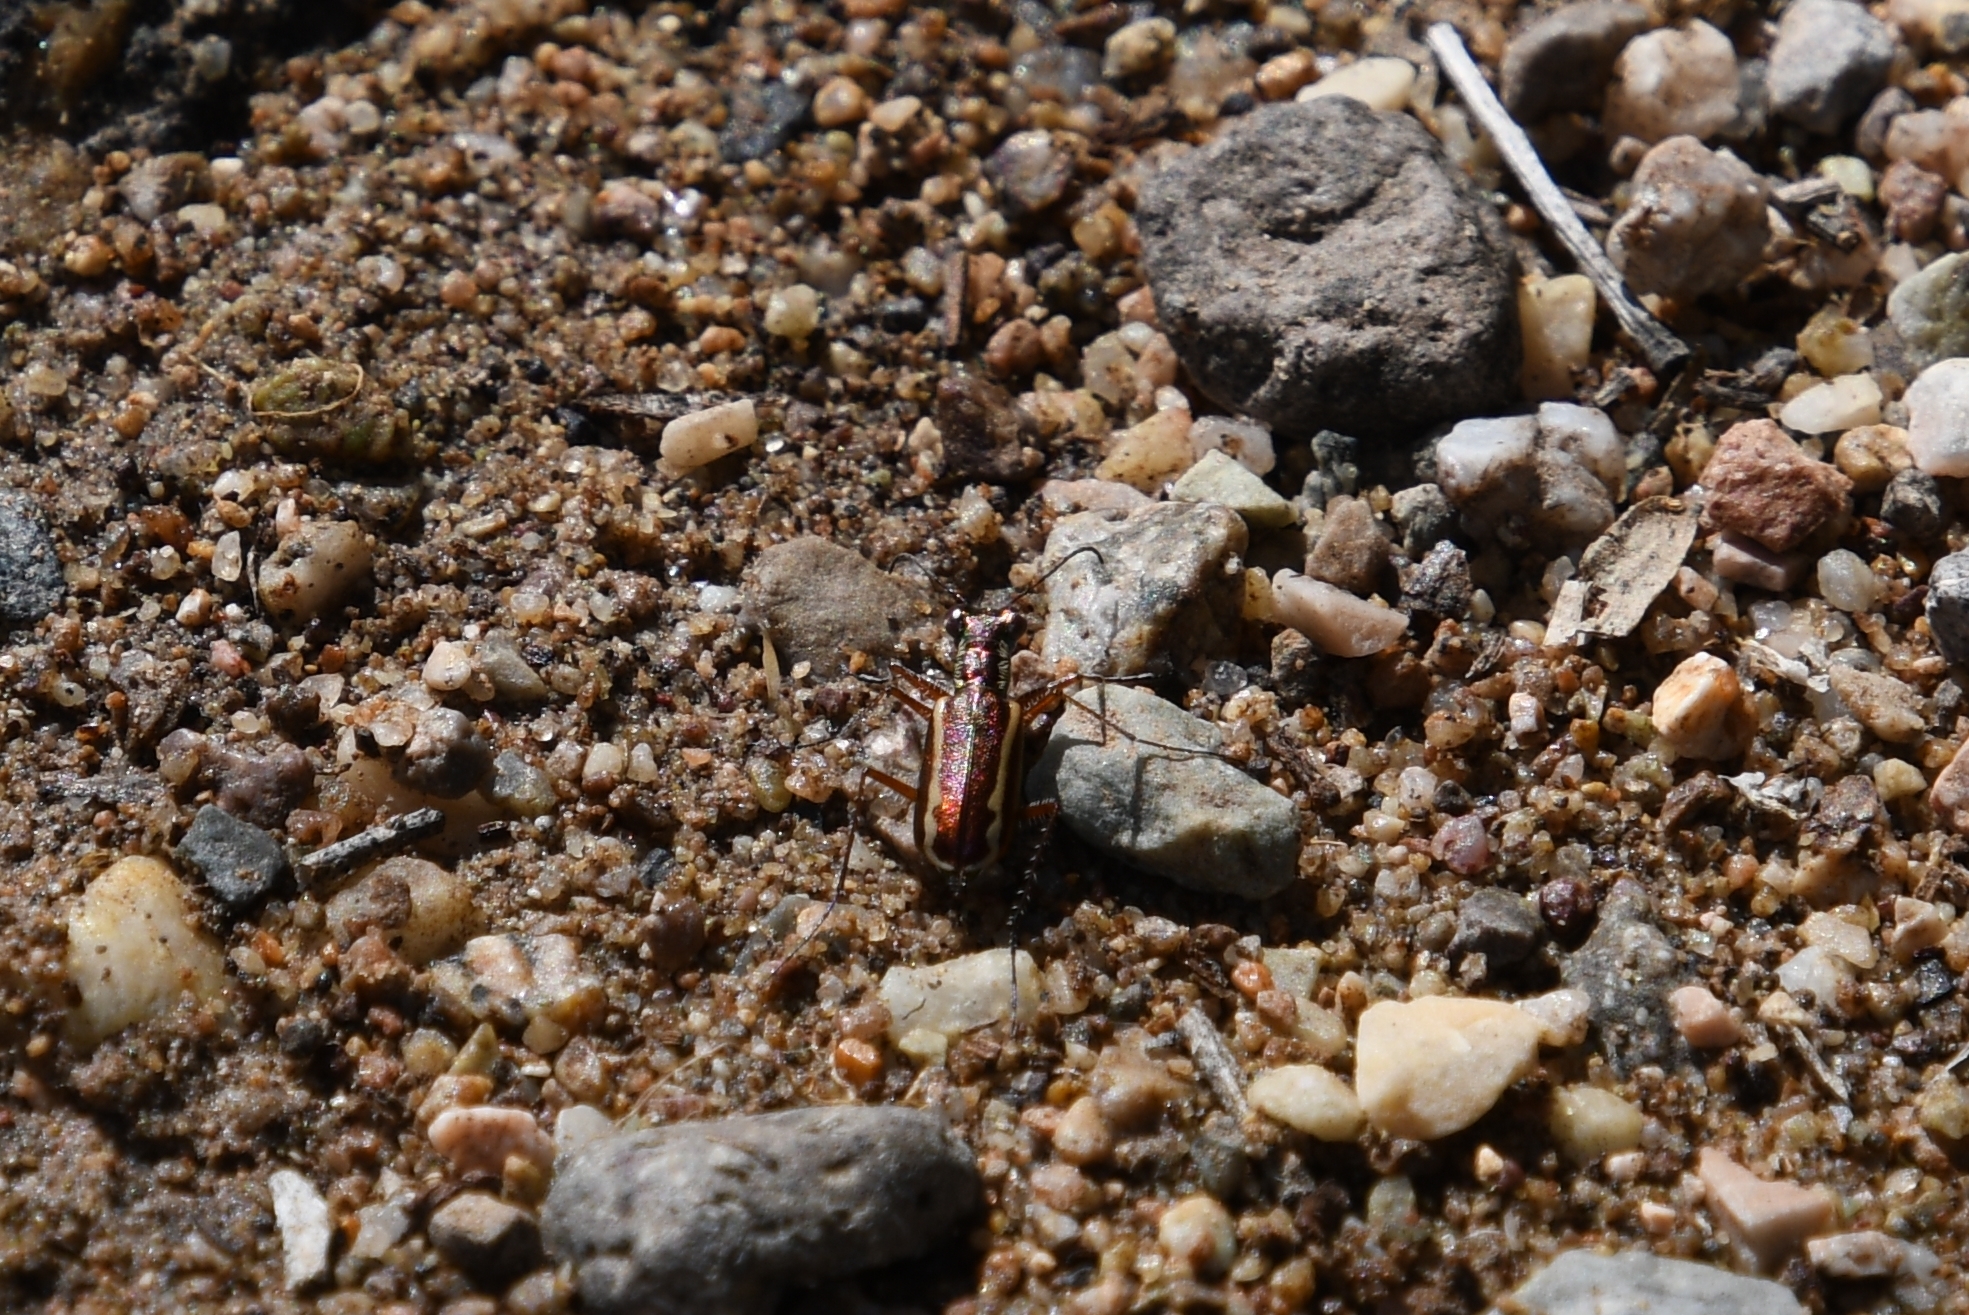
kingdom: Animalia
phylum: Arthropoda
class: Insecta
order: Coleoptera
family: Carabidae
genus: Cylindera
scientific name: Cylindera lemniscata
